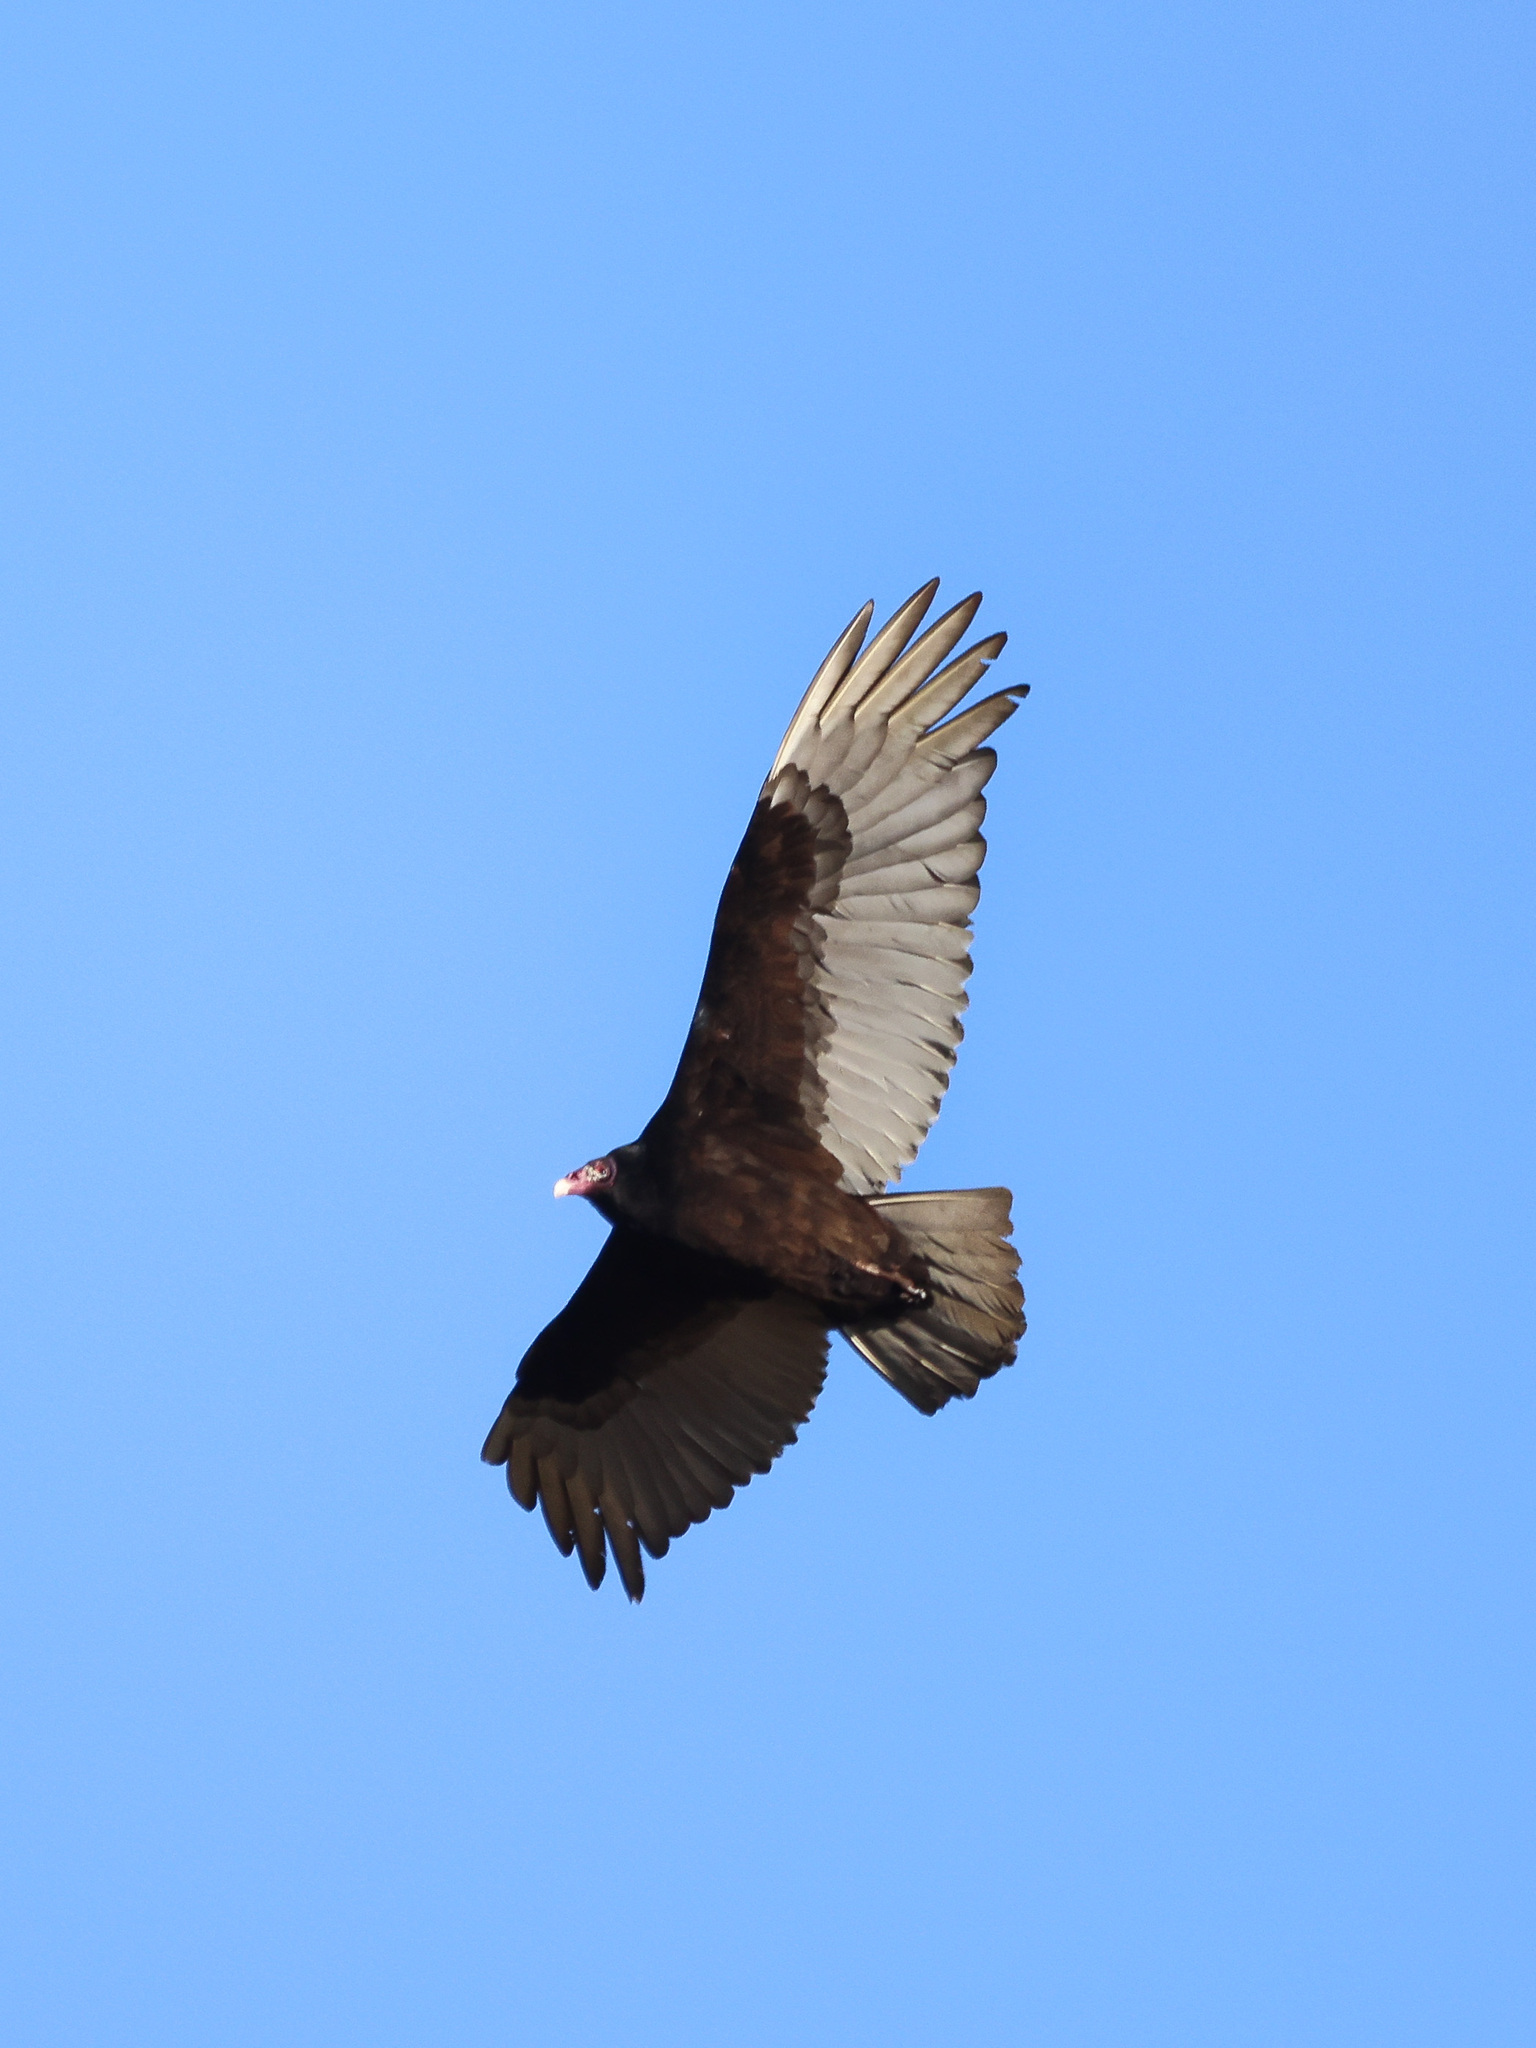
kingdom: Animalia
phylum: Chordata
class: Aves
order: Accipitriformes
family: Cathartidae
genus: Cathartes
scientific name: Cathartes aura
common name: Turkey vulture
